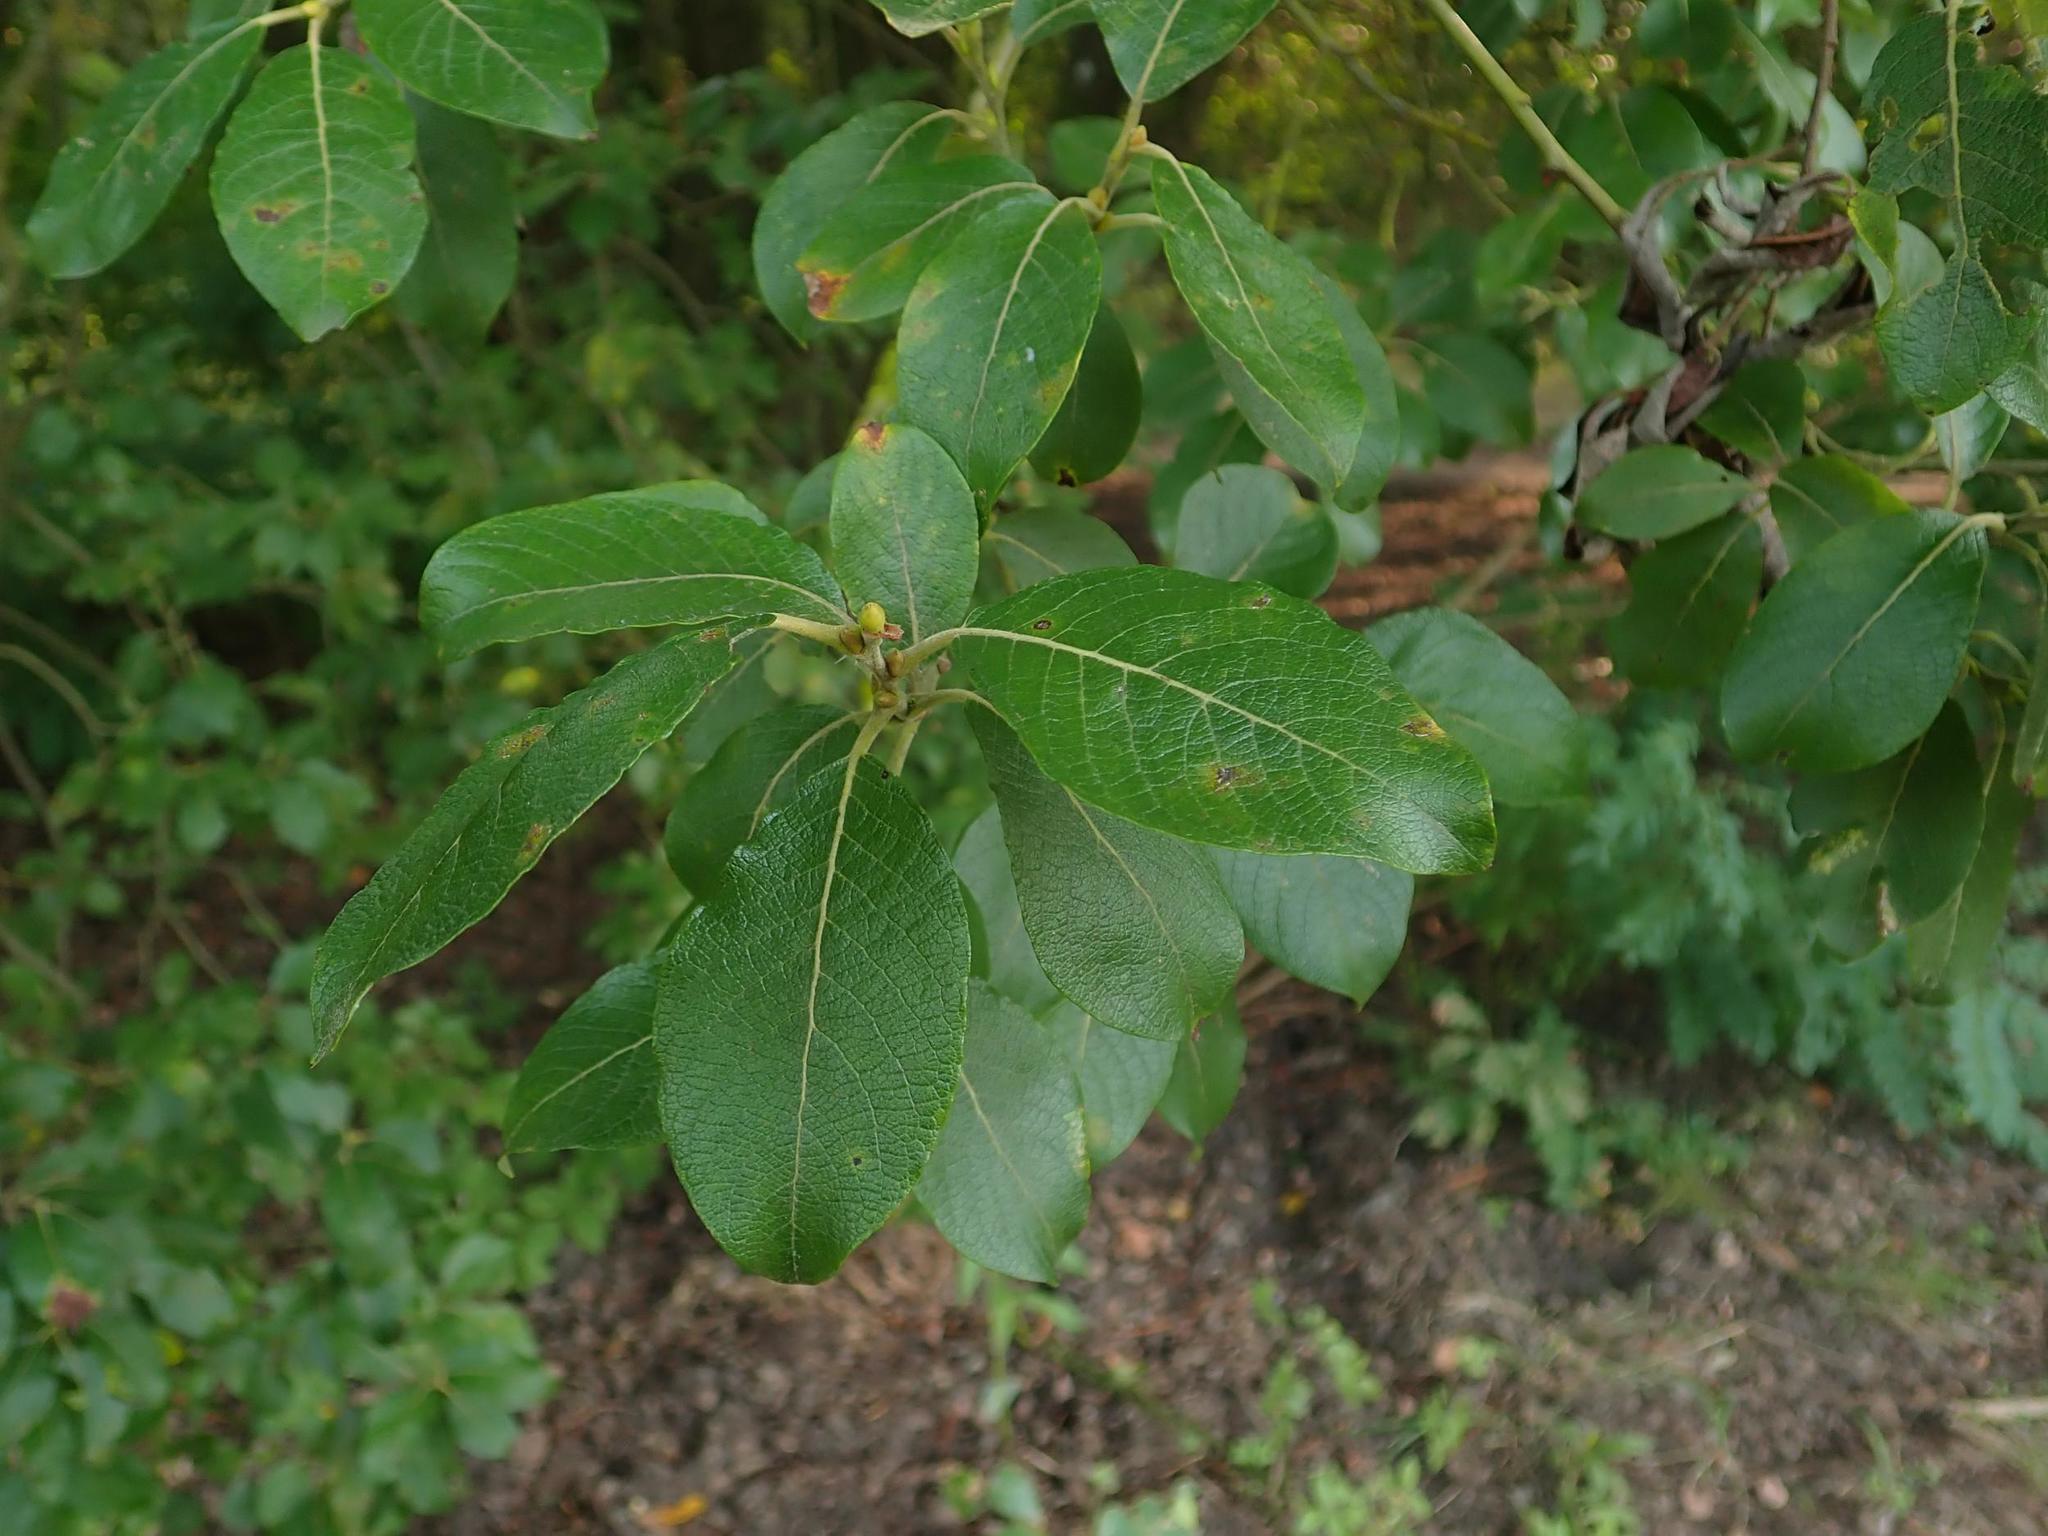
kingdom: Plantae
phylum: Tracheophyta
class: Magnoliopsida
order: Malpighiales
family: Salicaceae
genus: Salix
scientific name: Salix caprea
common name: Goat willow
